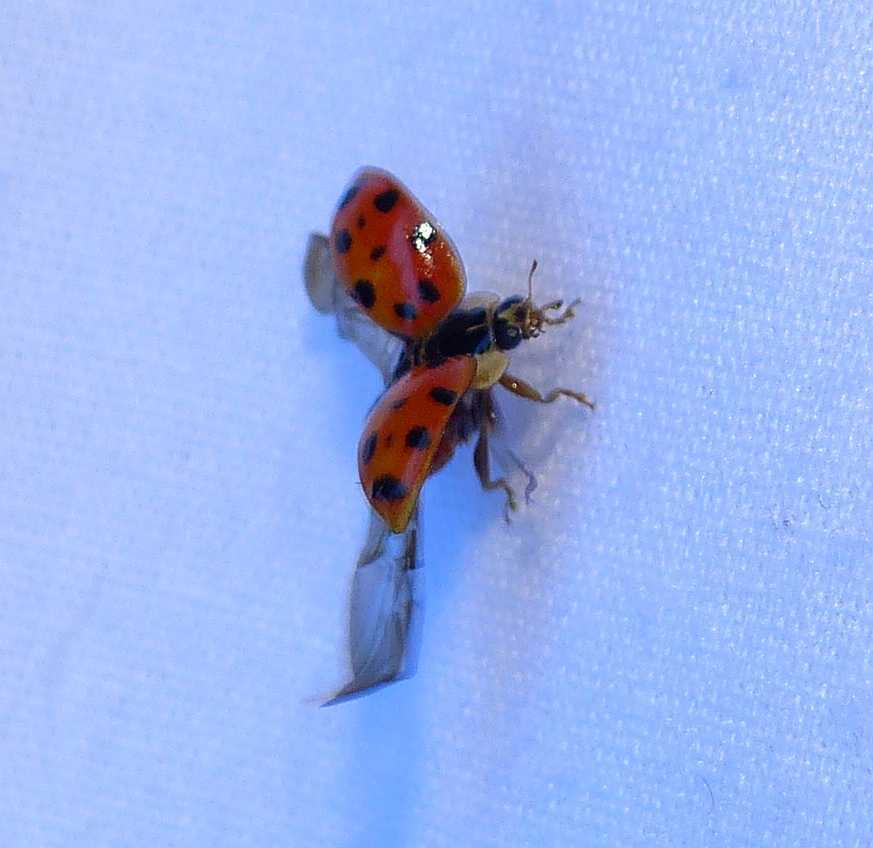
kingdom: Animalia
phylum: Arthropoda
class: Insecta
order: Coleoptera
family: Coccinellidae
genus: Harmonia
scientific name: Harmonia axyridis
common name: Harlequin ladybird
